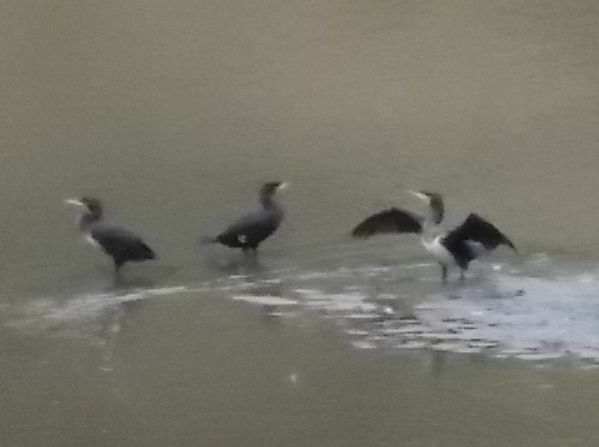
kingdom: Animalia
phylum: Chordata
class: Aves
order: Suliformes
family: Phalacrocoracidae
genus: Phalacrocorax
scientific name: Phalacrocorax carbo
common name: Great cormorant
